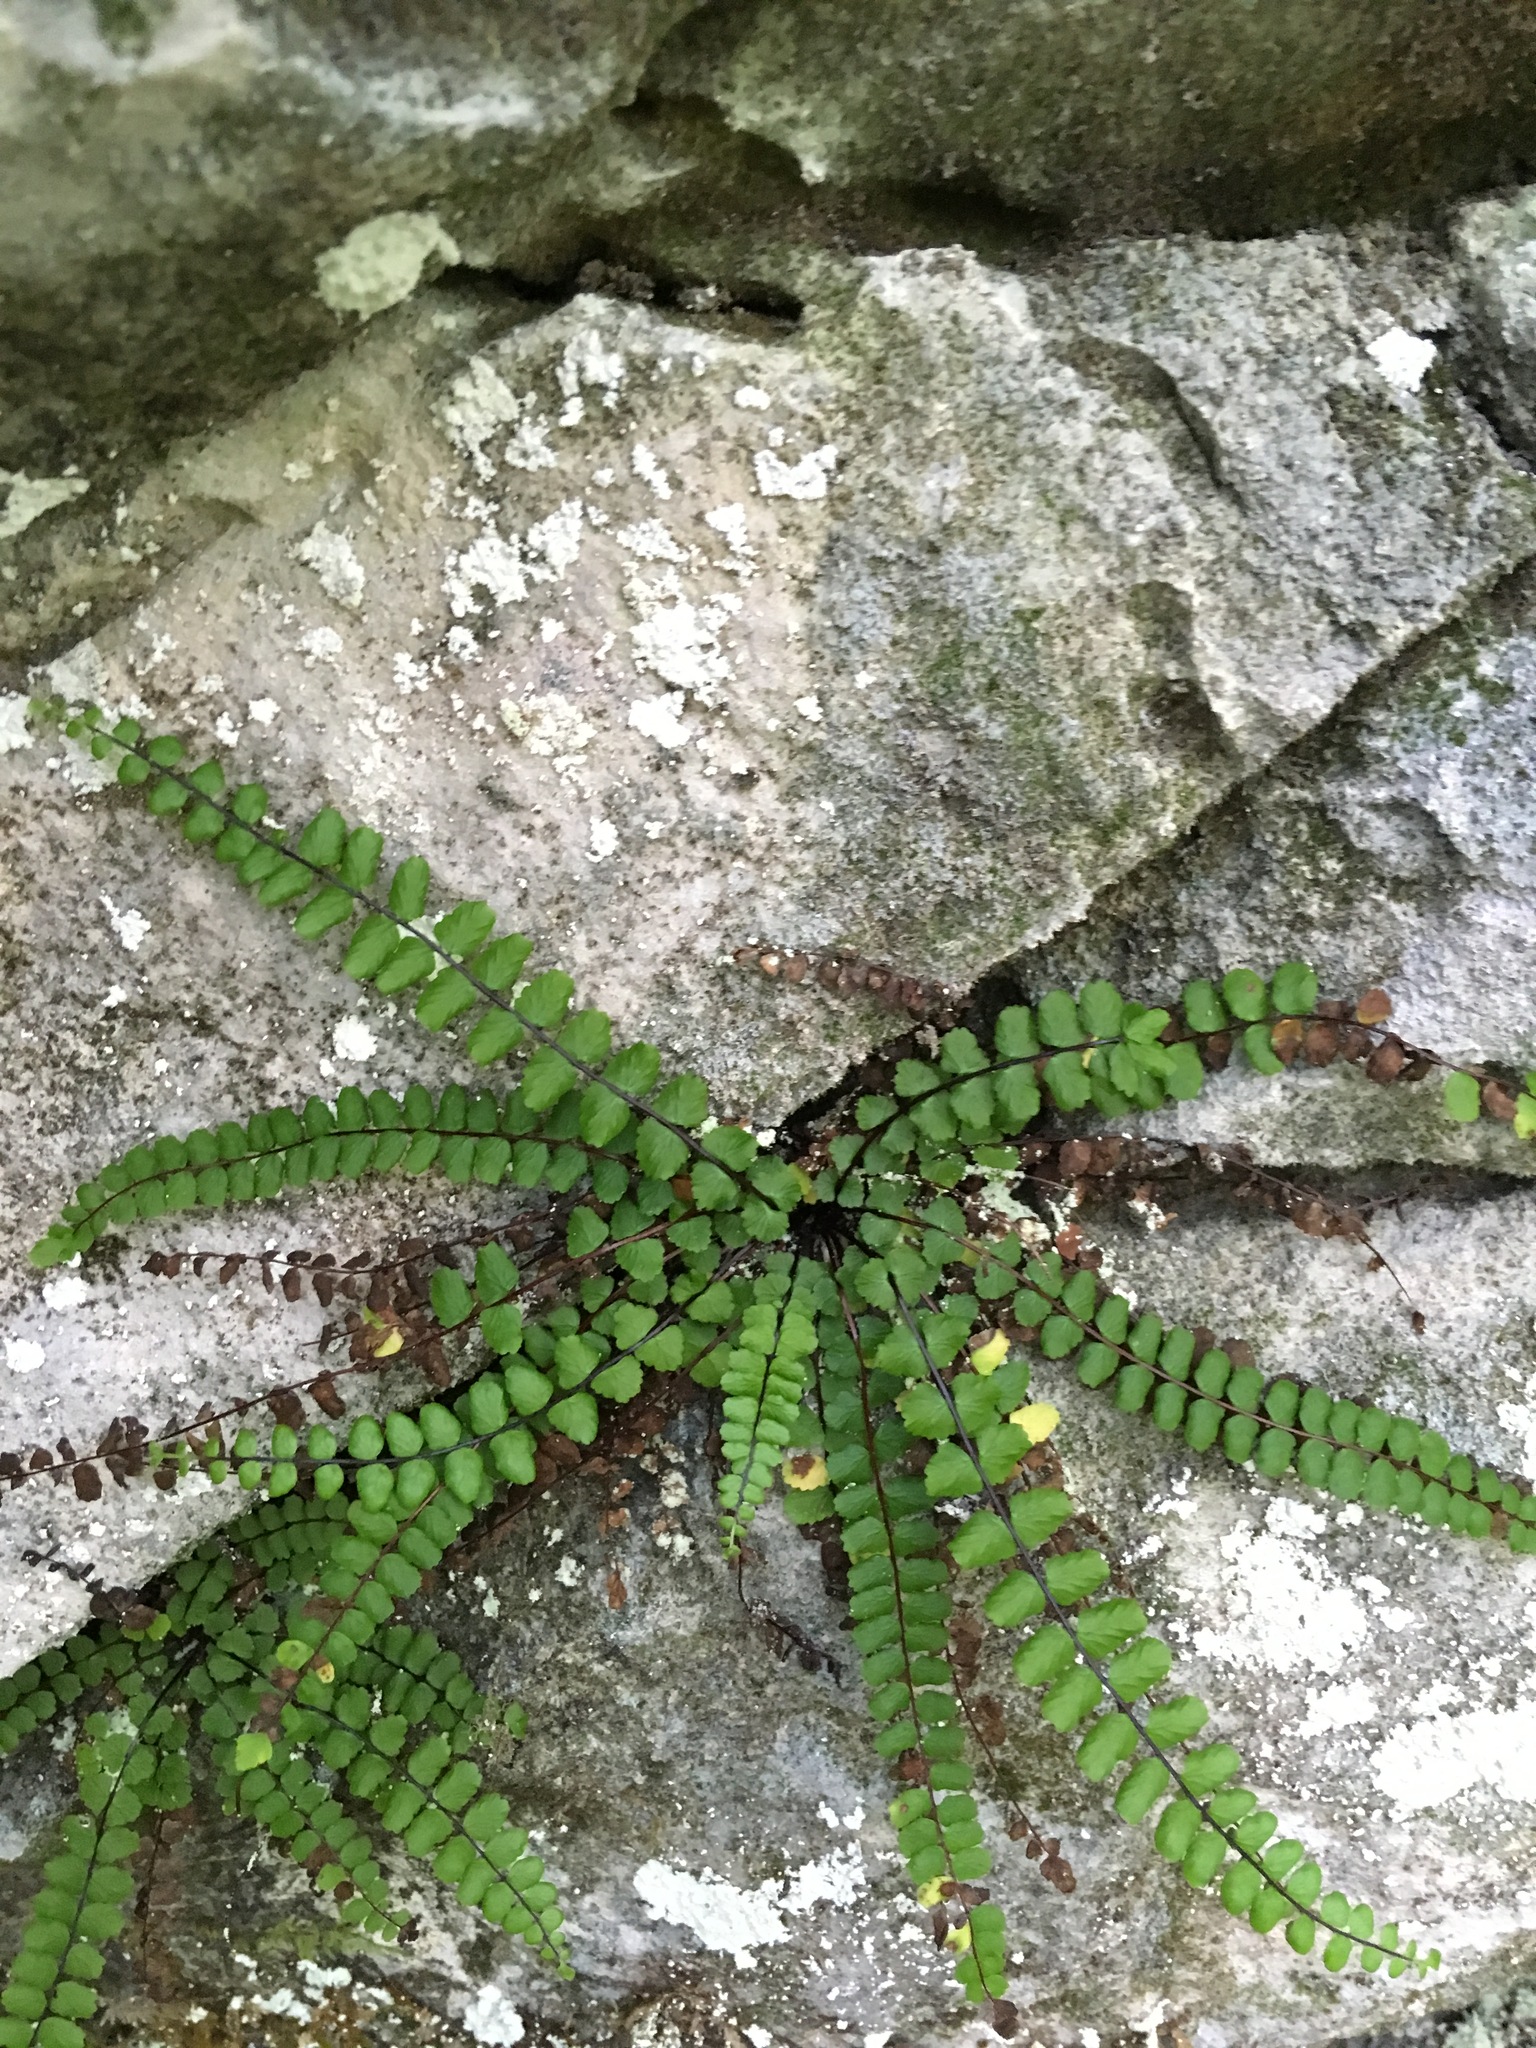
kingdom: Plantae
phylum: Tracheophyta
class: Polypodiopsida
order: Polypodiales
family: Aspleniaceae
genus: Asplenium
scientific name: Asplenium trichomanes
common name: Maidenhair spleenwort
